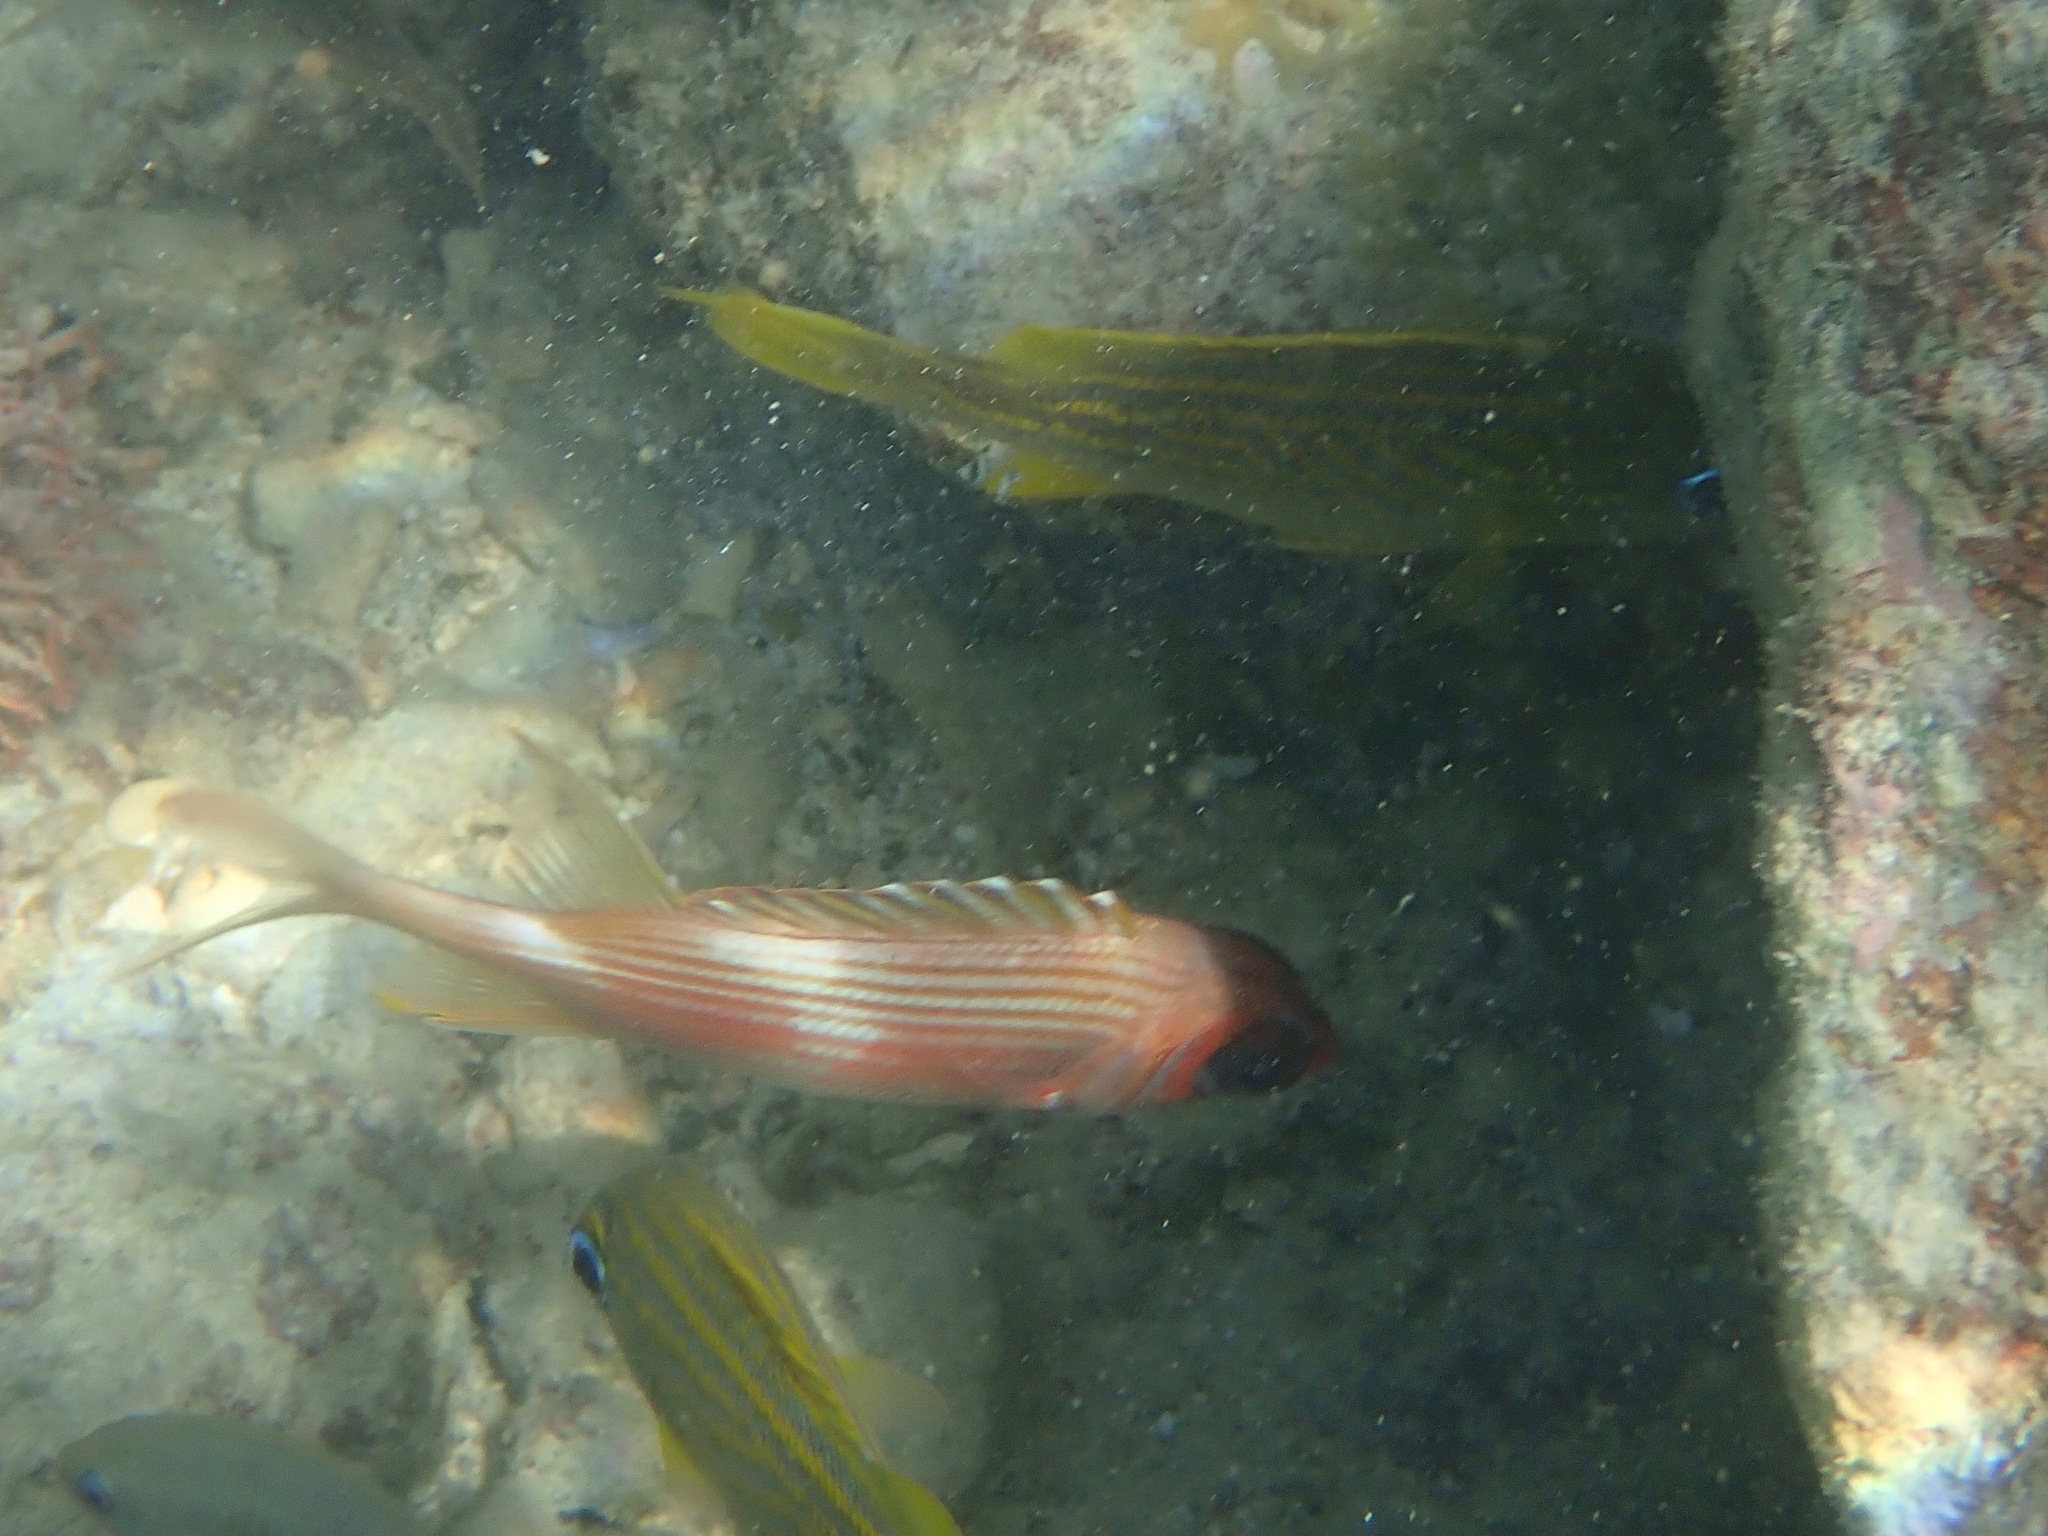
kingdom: Animalia
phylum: Chordata
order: Beryciformes
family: Holocentridae
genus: Holocentrus
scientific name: Holocentrus rufus
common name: Longspine squirrelfish
